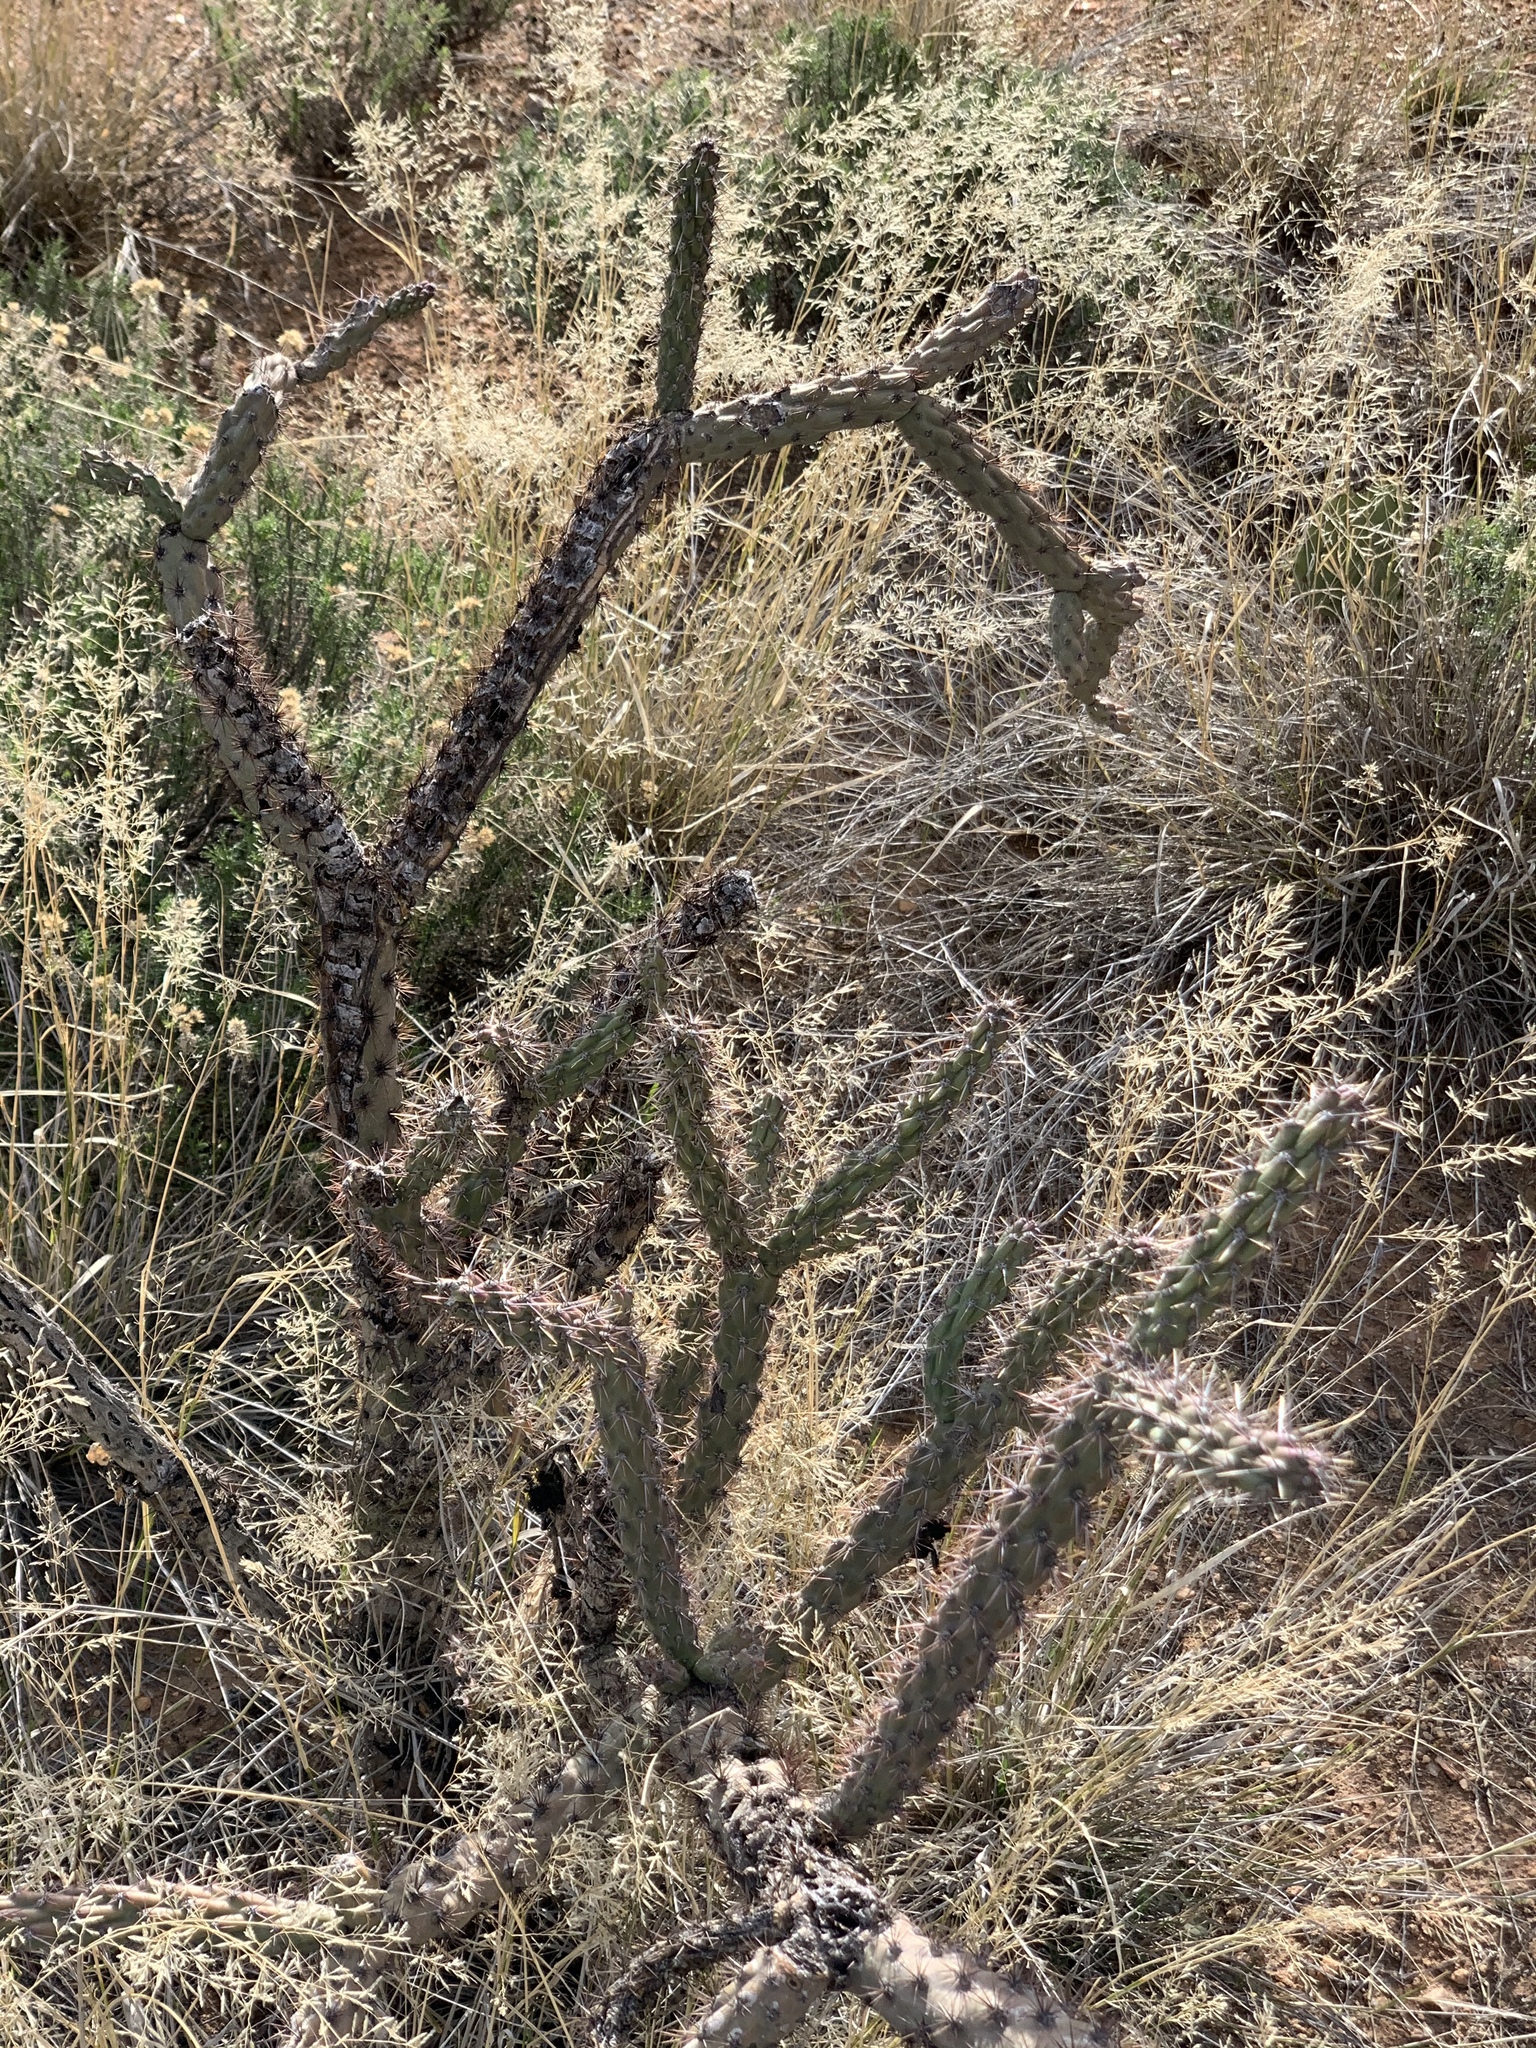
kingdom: Plantae
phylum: Tracheophyta
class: Magnoliopsida
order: Caryophyllales
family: Cactaceae
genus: Cylindropuntia
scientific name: Cylindropuntia thurberi
